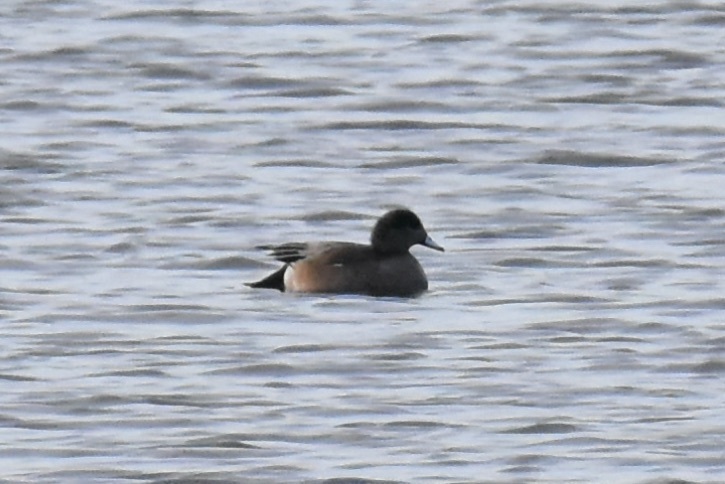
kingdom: Animalia
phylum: Chordata
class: Aves
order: Anseriformes
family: Anatidae
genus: Mareca
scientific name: Mareca americana
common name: American wigeon
